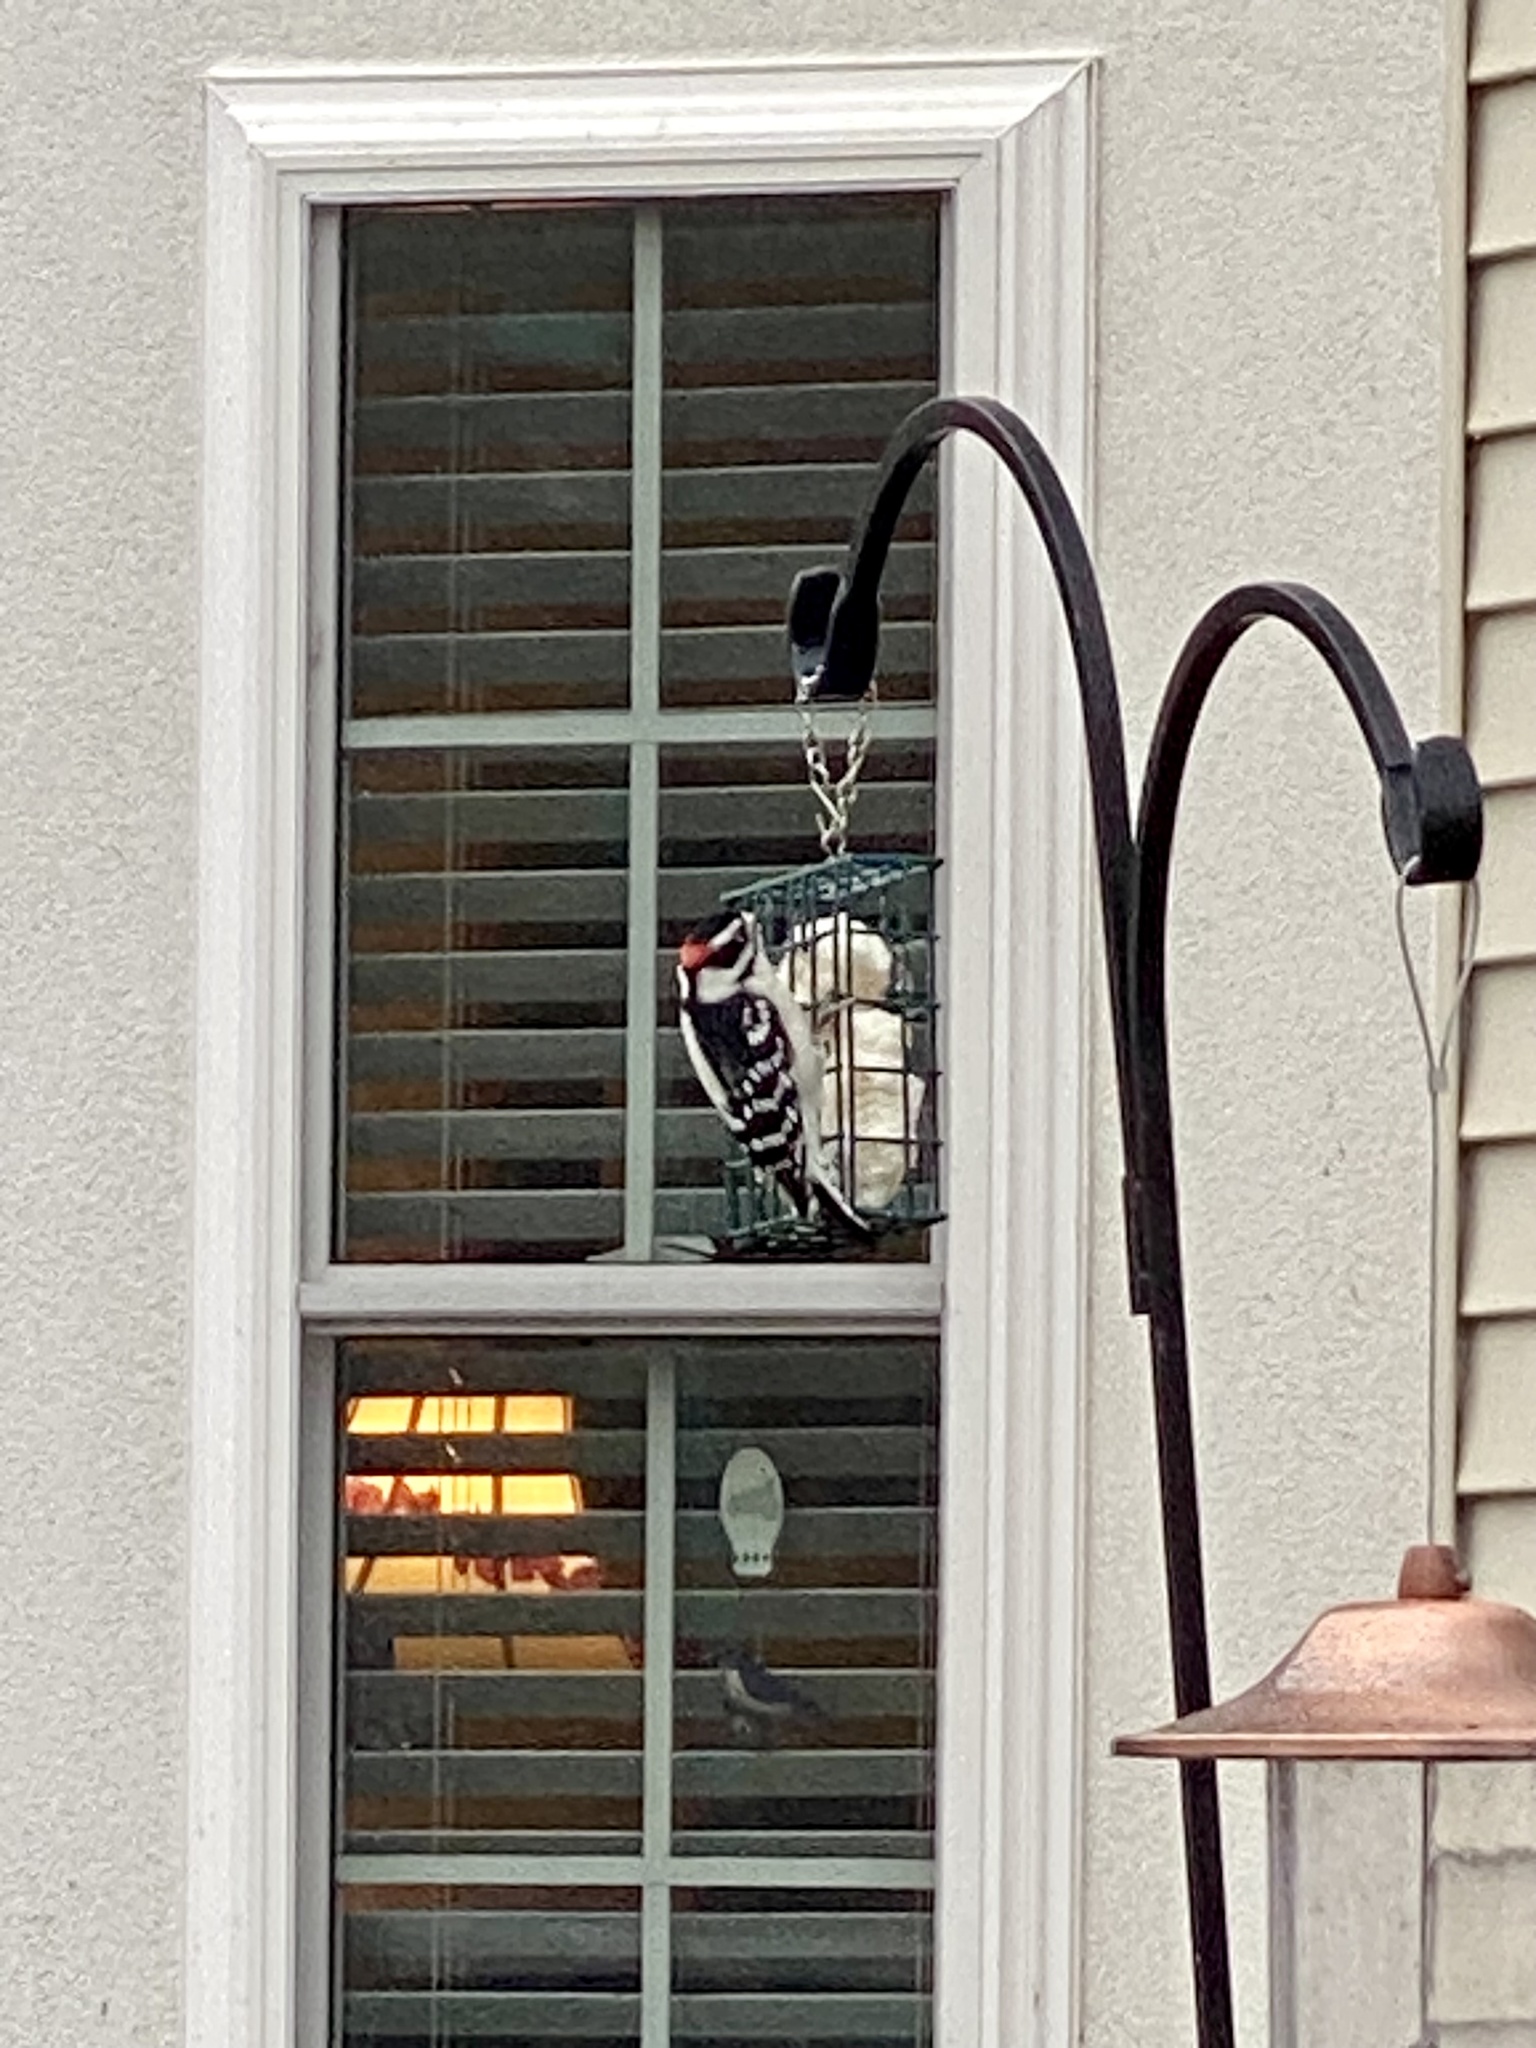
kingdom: Animalia
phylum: Chordata
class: Aves
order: Piciformes
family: Picidae
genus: Dryobates
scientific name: Dryobates pubescens
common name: Downy woodpecker
